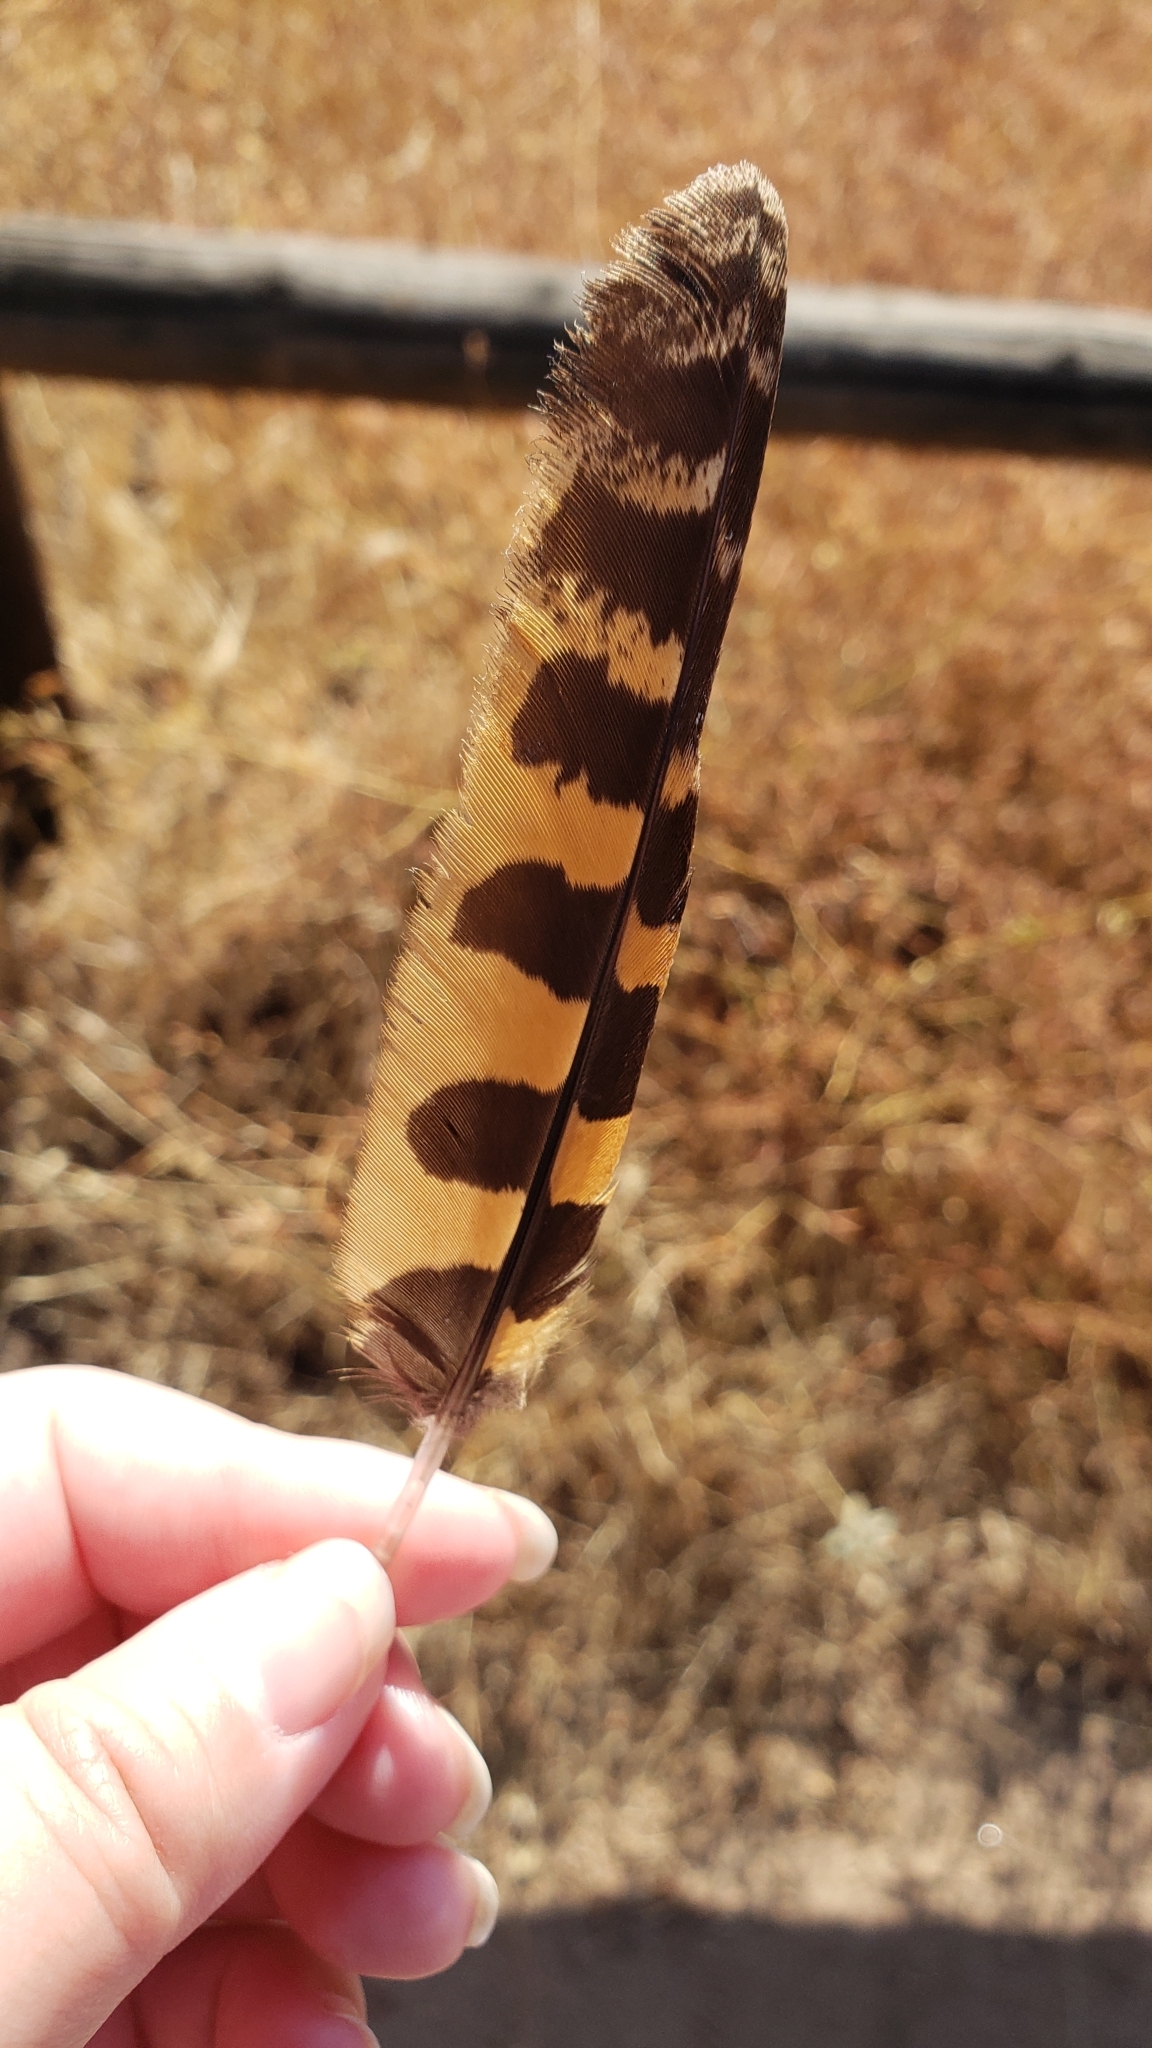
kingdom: Animalia
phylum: Chordata
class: Aves
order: Caprimulgiformes
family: Caprimulgidae
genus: Phalaenoptilus
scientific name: Phalaenoptilus nuttallii
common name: Common poorwill
